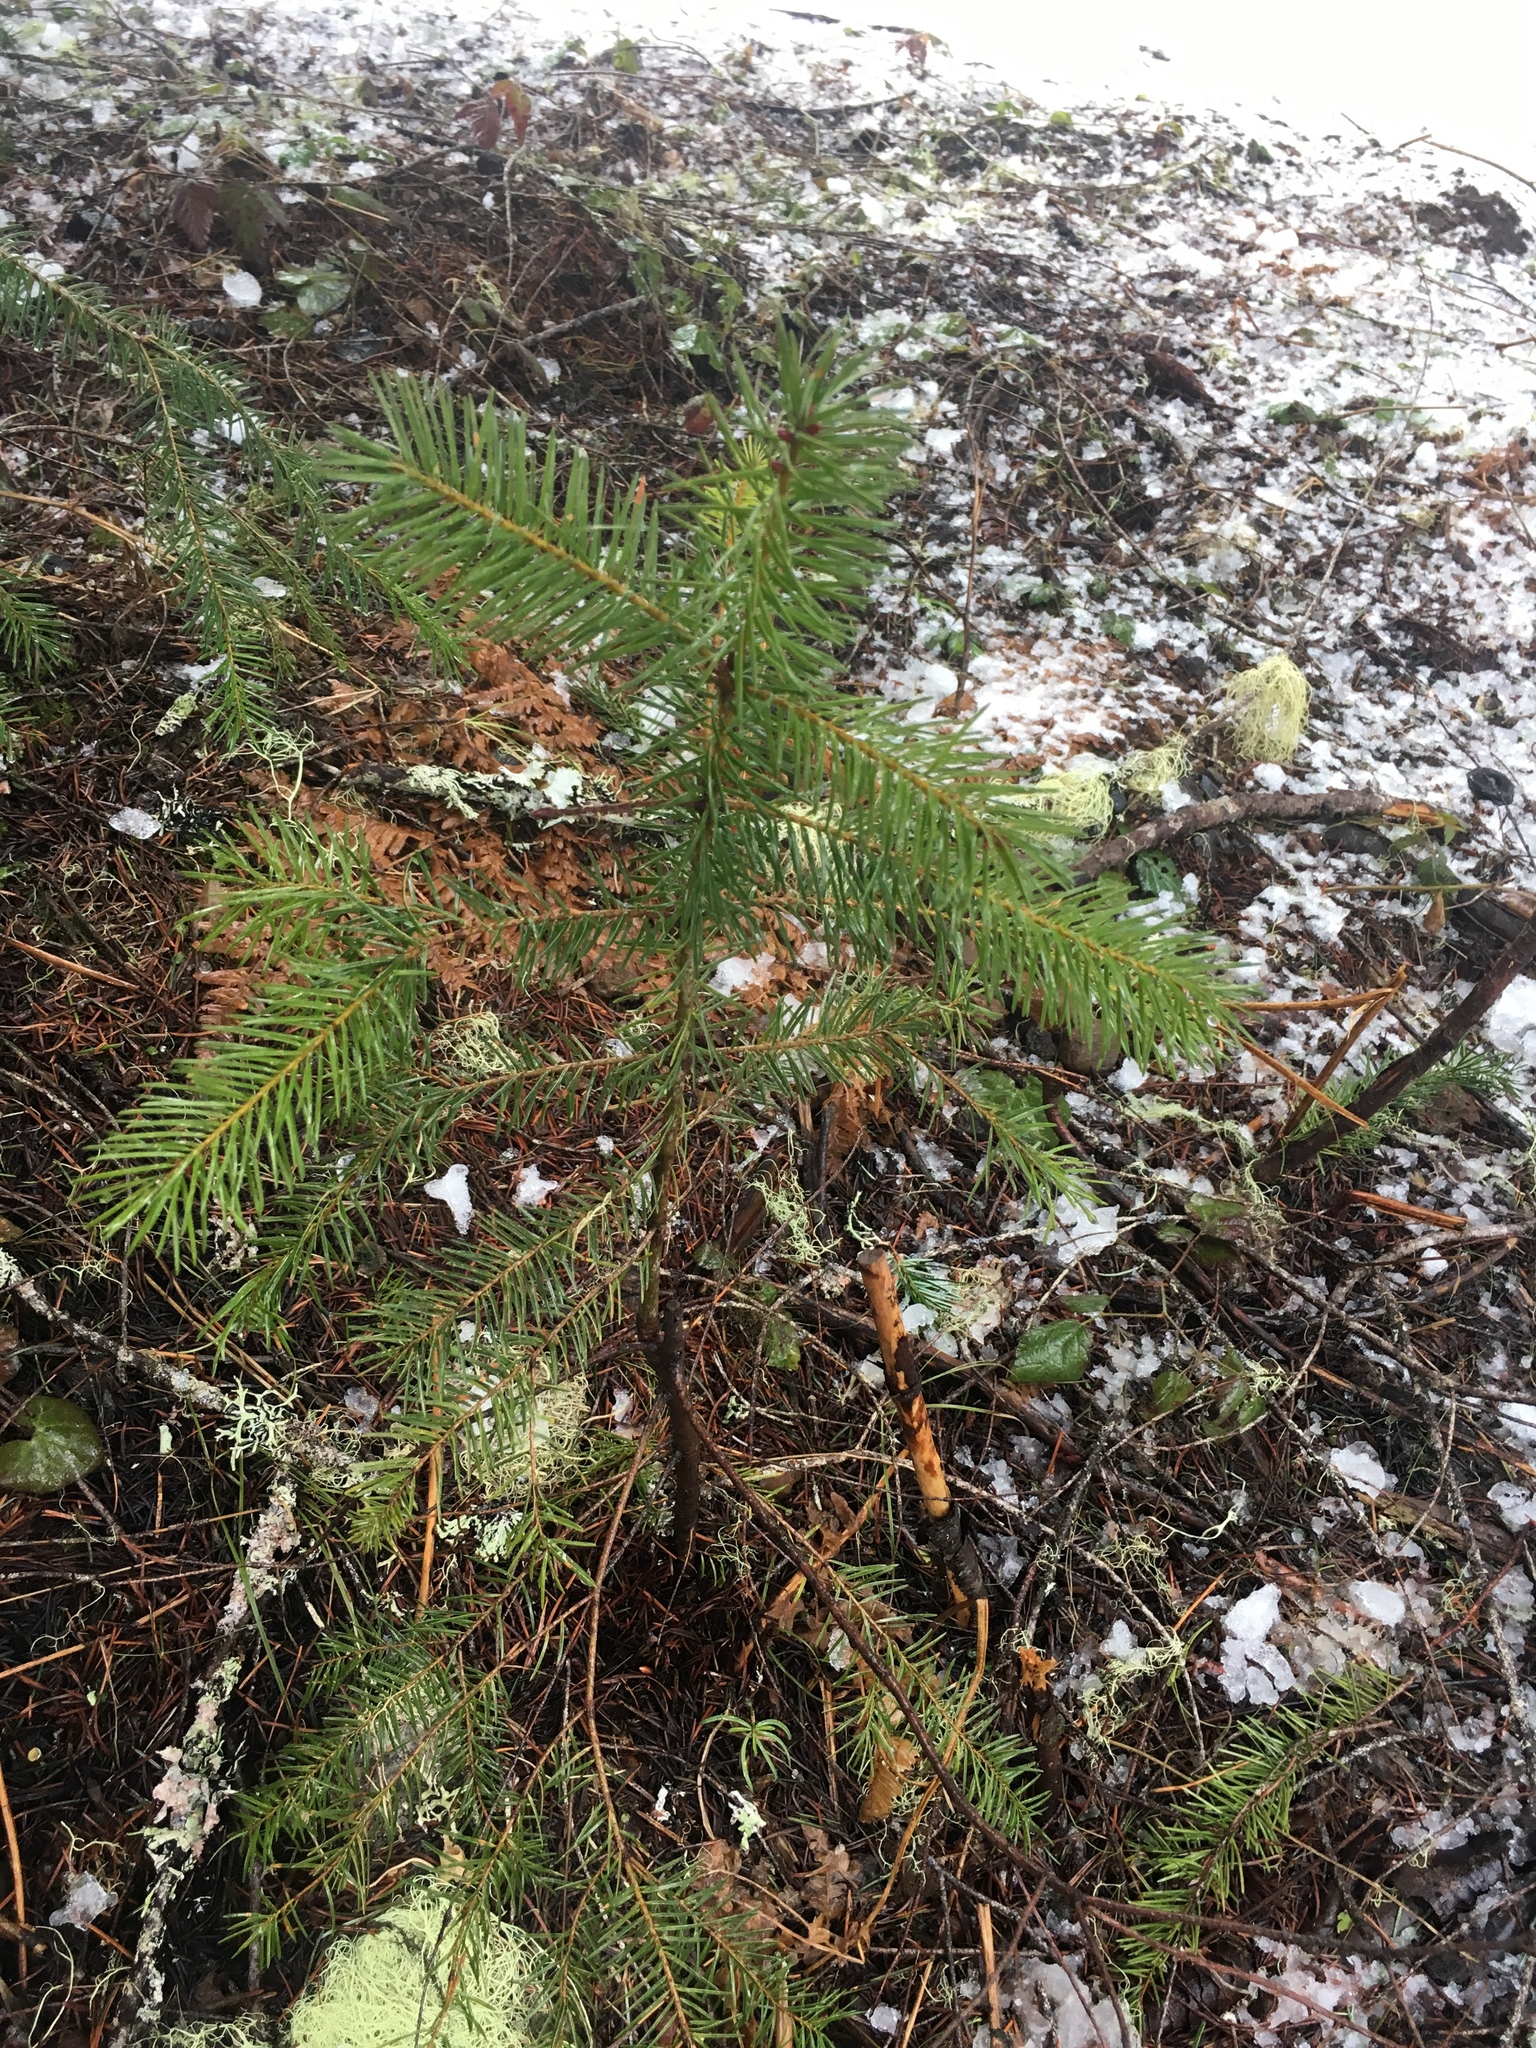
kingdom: Plantae
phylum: Tracheophyta
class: Pinopsida
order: Pinales
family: Pinaceae
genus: Pseudotsuga
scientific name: Pseudotsuga menziesii
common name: Douglas fir
